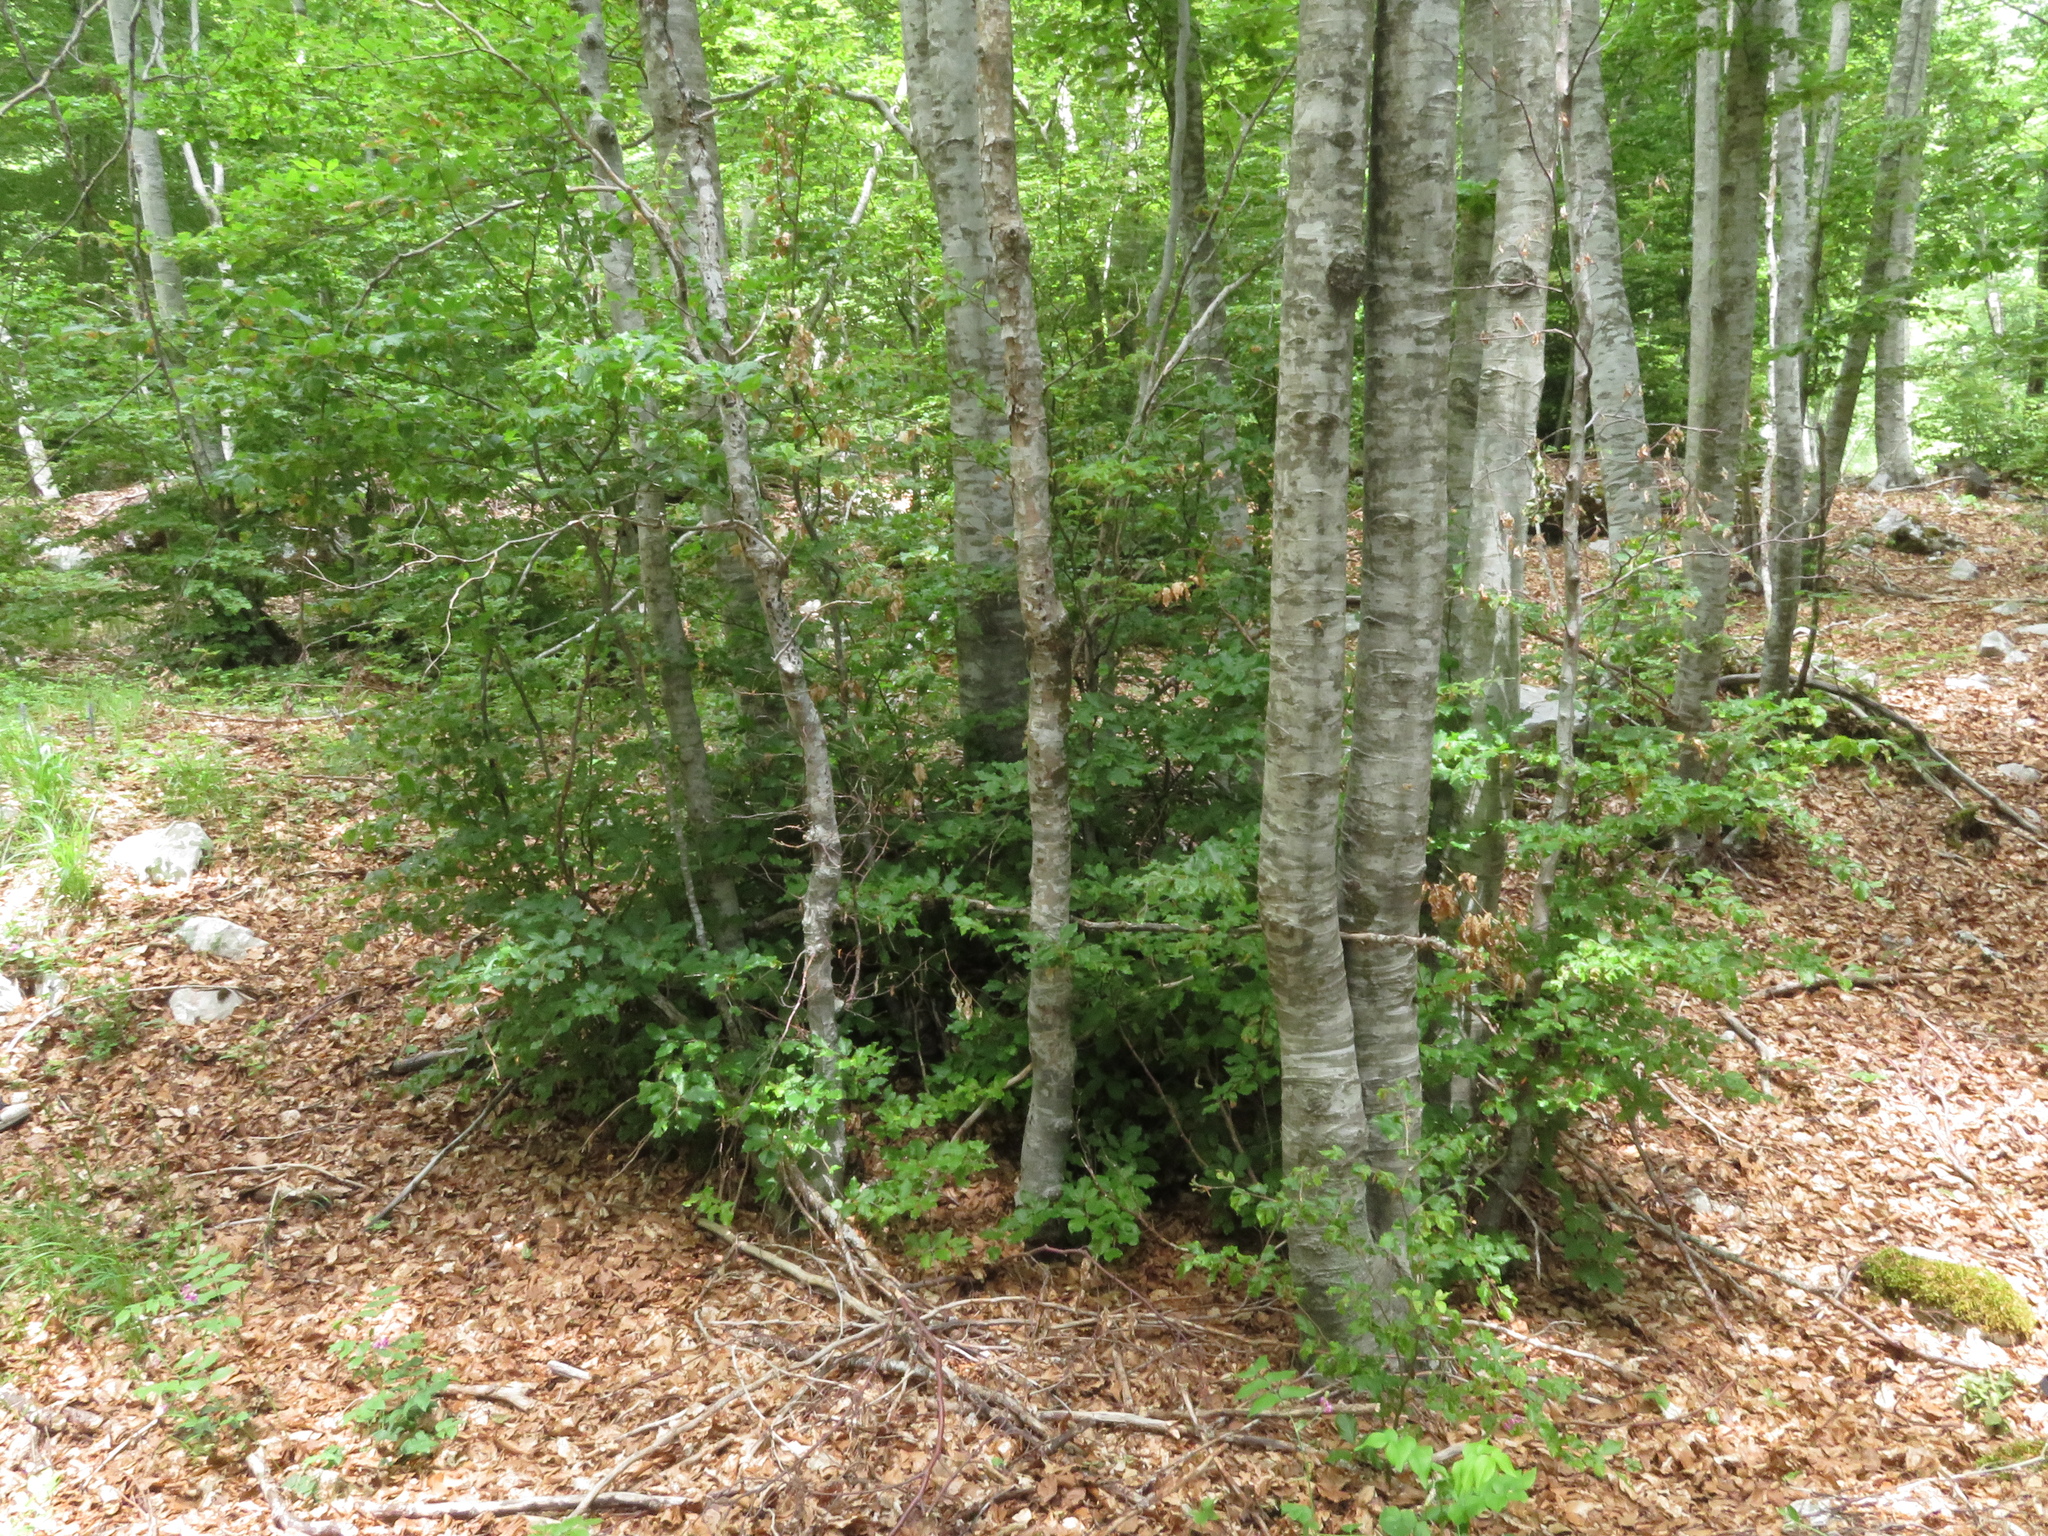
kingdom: Plantae
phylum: Tracheophyta
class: Magnoliopsida
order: Fagales
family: Fagaceae
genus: Fagus
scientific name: Fagus sylvatica
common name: Beech
